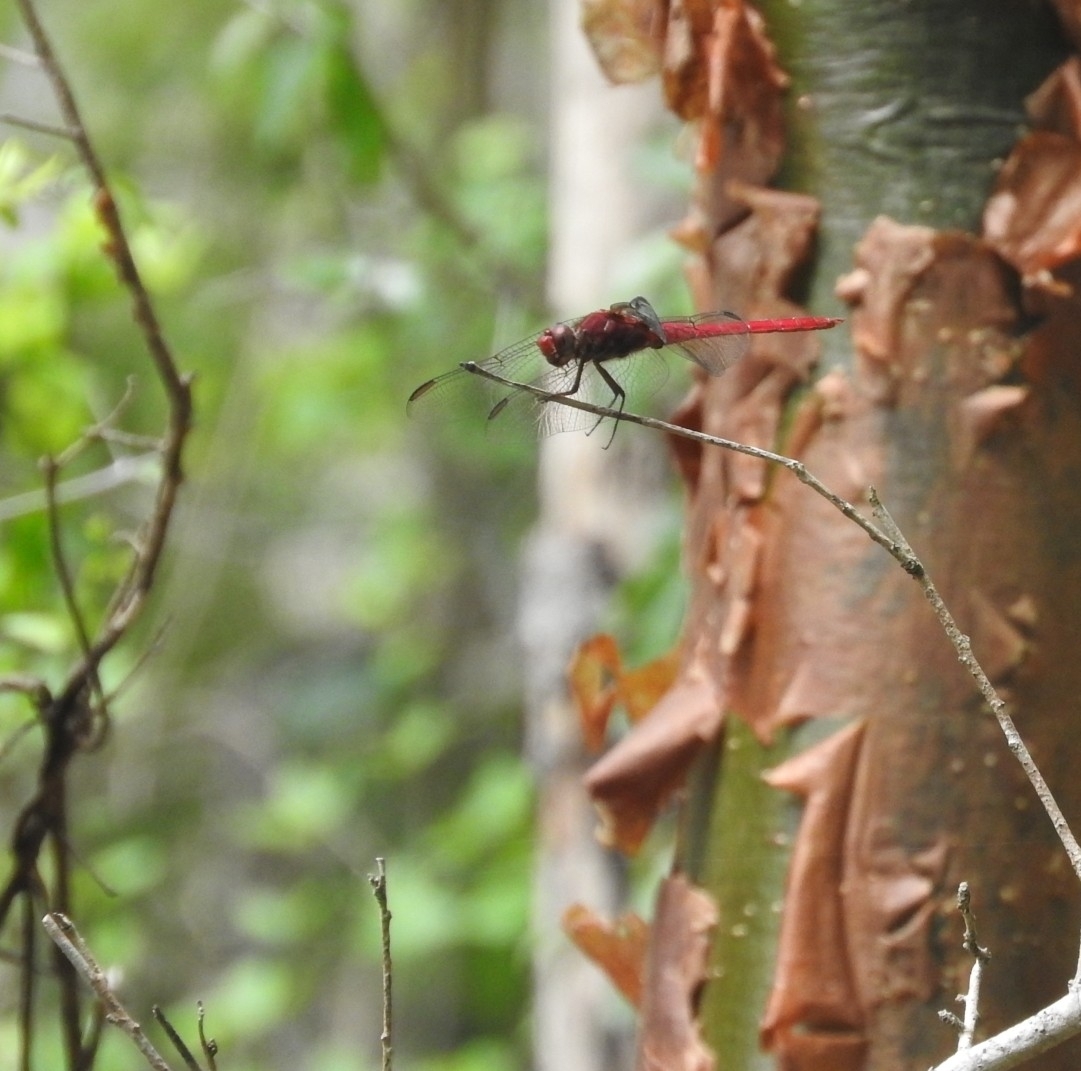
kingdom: Animalia
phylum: Arthropoda
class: Insecta
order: Odonata
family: Libellulidae
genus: Orthemis
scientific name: Orthemis discolor
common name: Carmine skimmer
